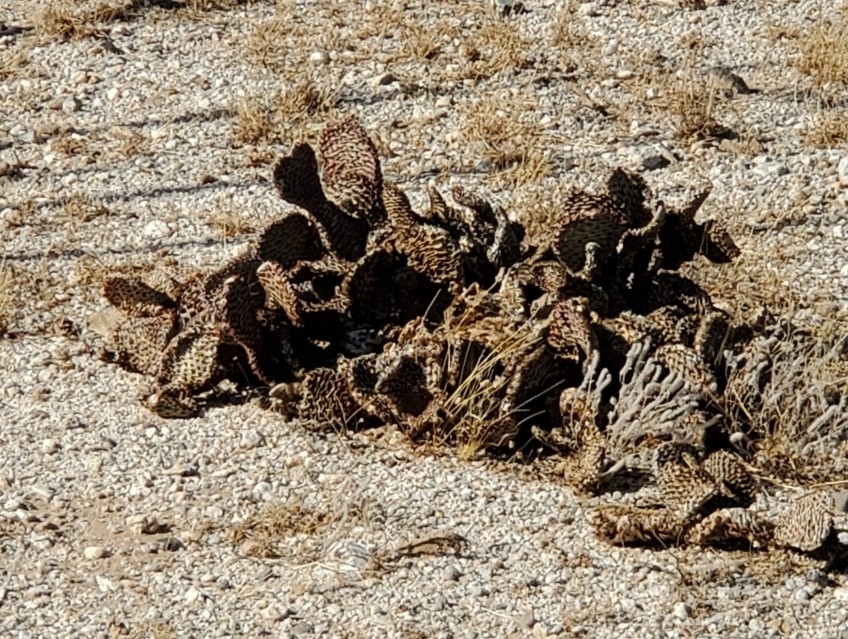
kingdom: Plantae
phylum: Tracheophyta
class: Magnoliopsida
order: Caryophyllales
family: Cactaceae
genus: Opuntia
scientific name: Opuntia basilaris
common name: Beavertail prickly-pear
